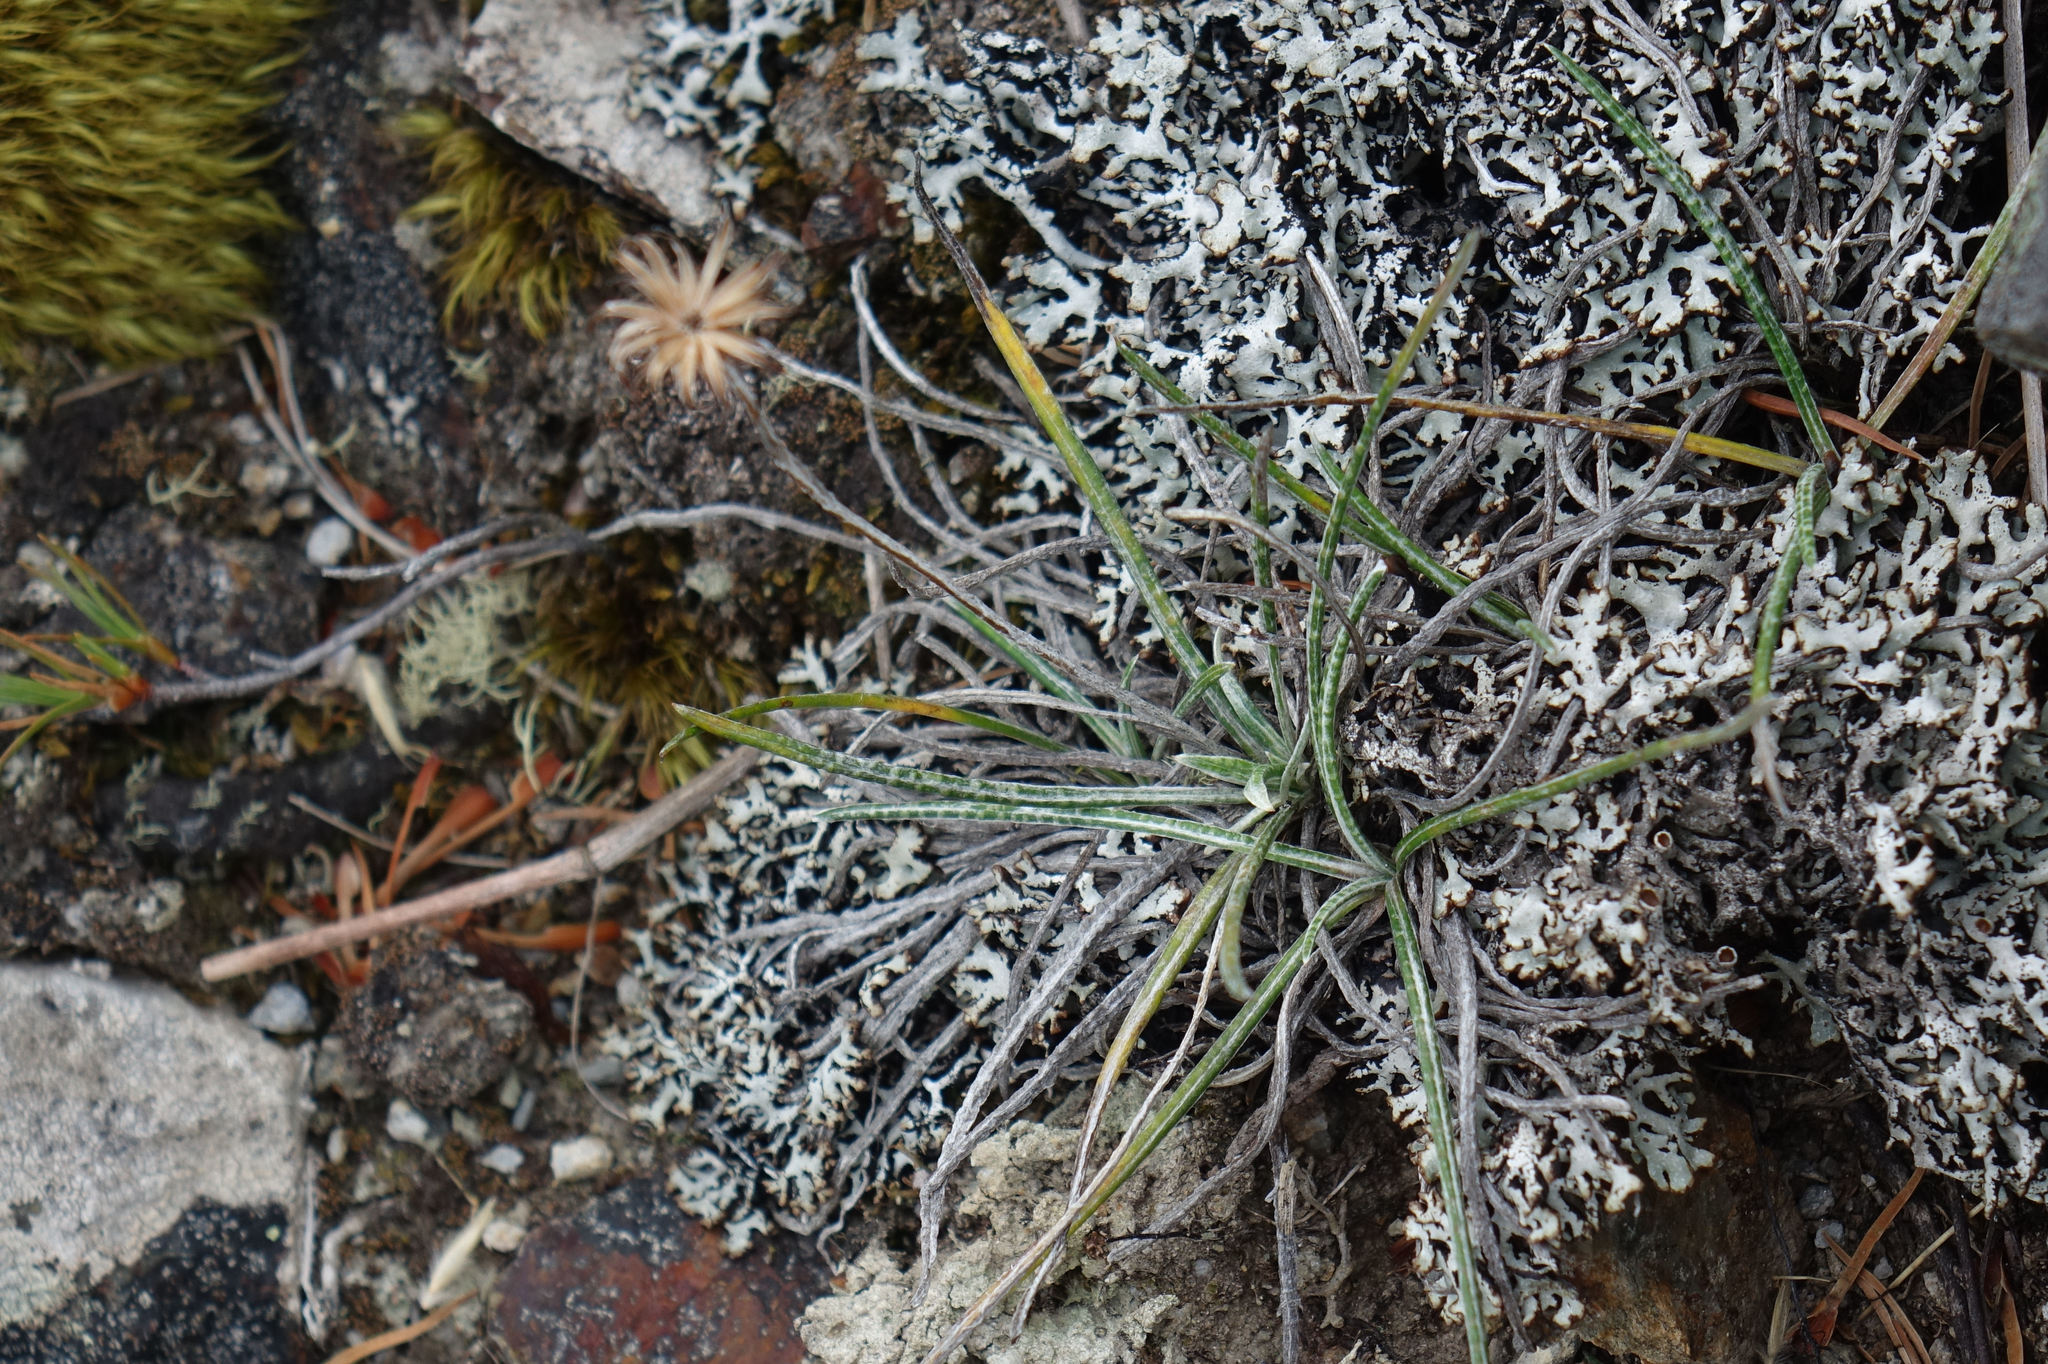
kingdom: Plantae
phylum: Tracheophyta
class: Magnoliopsida
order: Asterales
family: Asteraceae
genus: Celmisia
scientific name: Celmisia gracilenta
